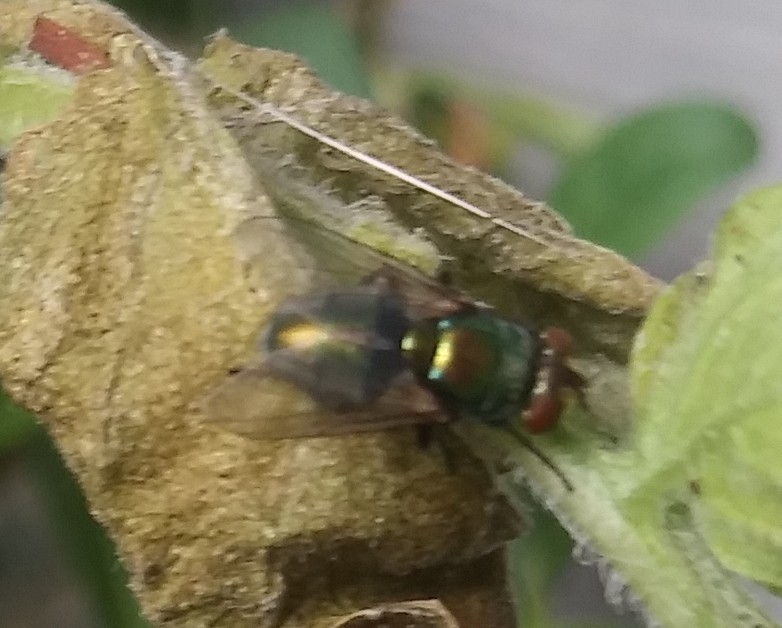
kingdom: Animalia
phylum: Arthropoda
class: Insecta
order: Diptera
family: Calliphoridae
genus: Lucilia
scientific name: Lucilia cuprina
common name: Sheep blow fly
